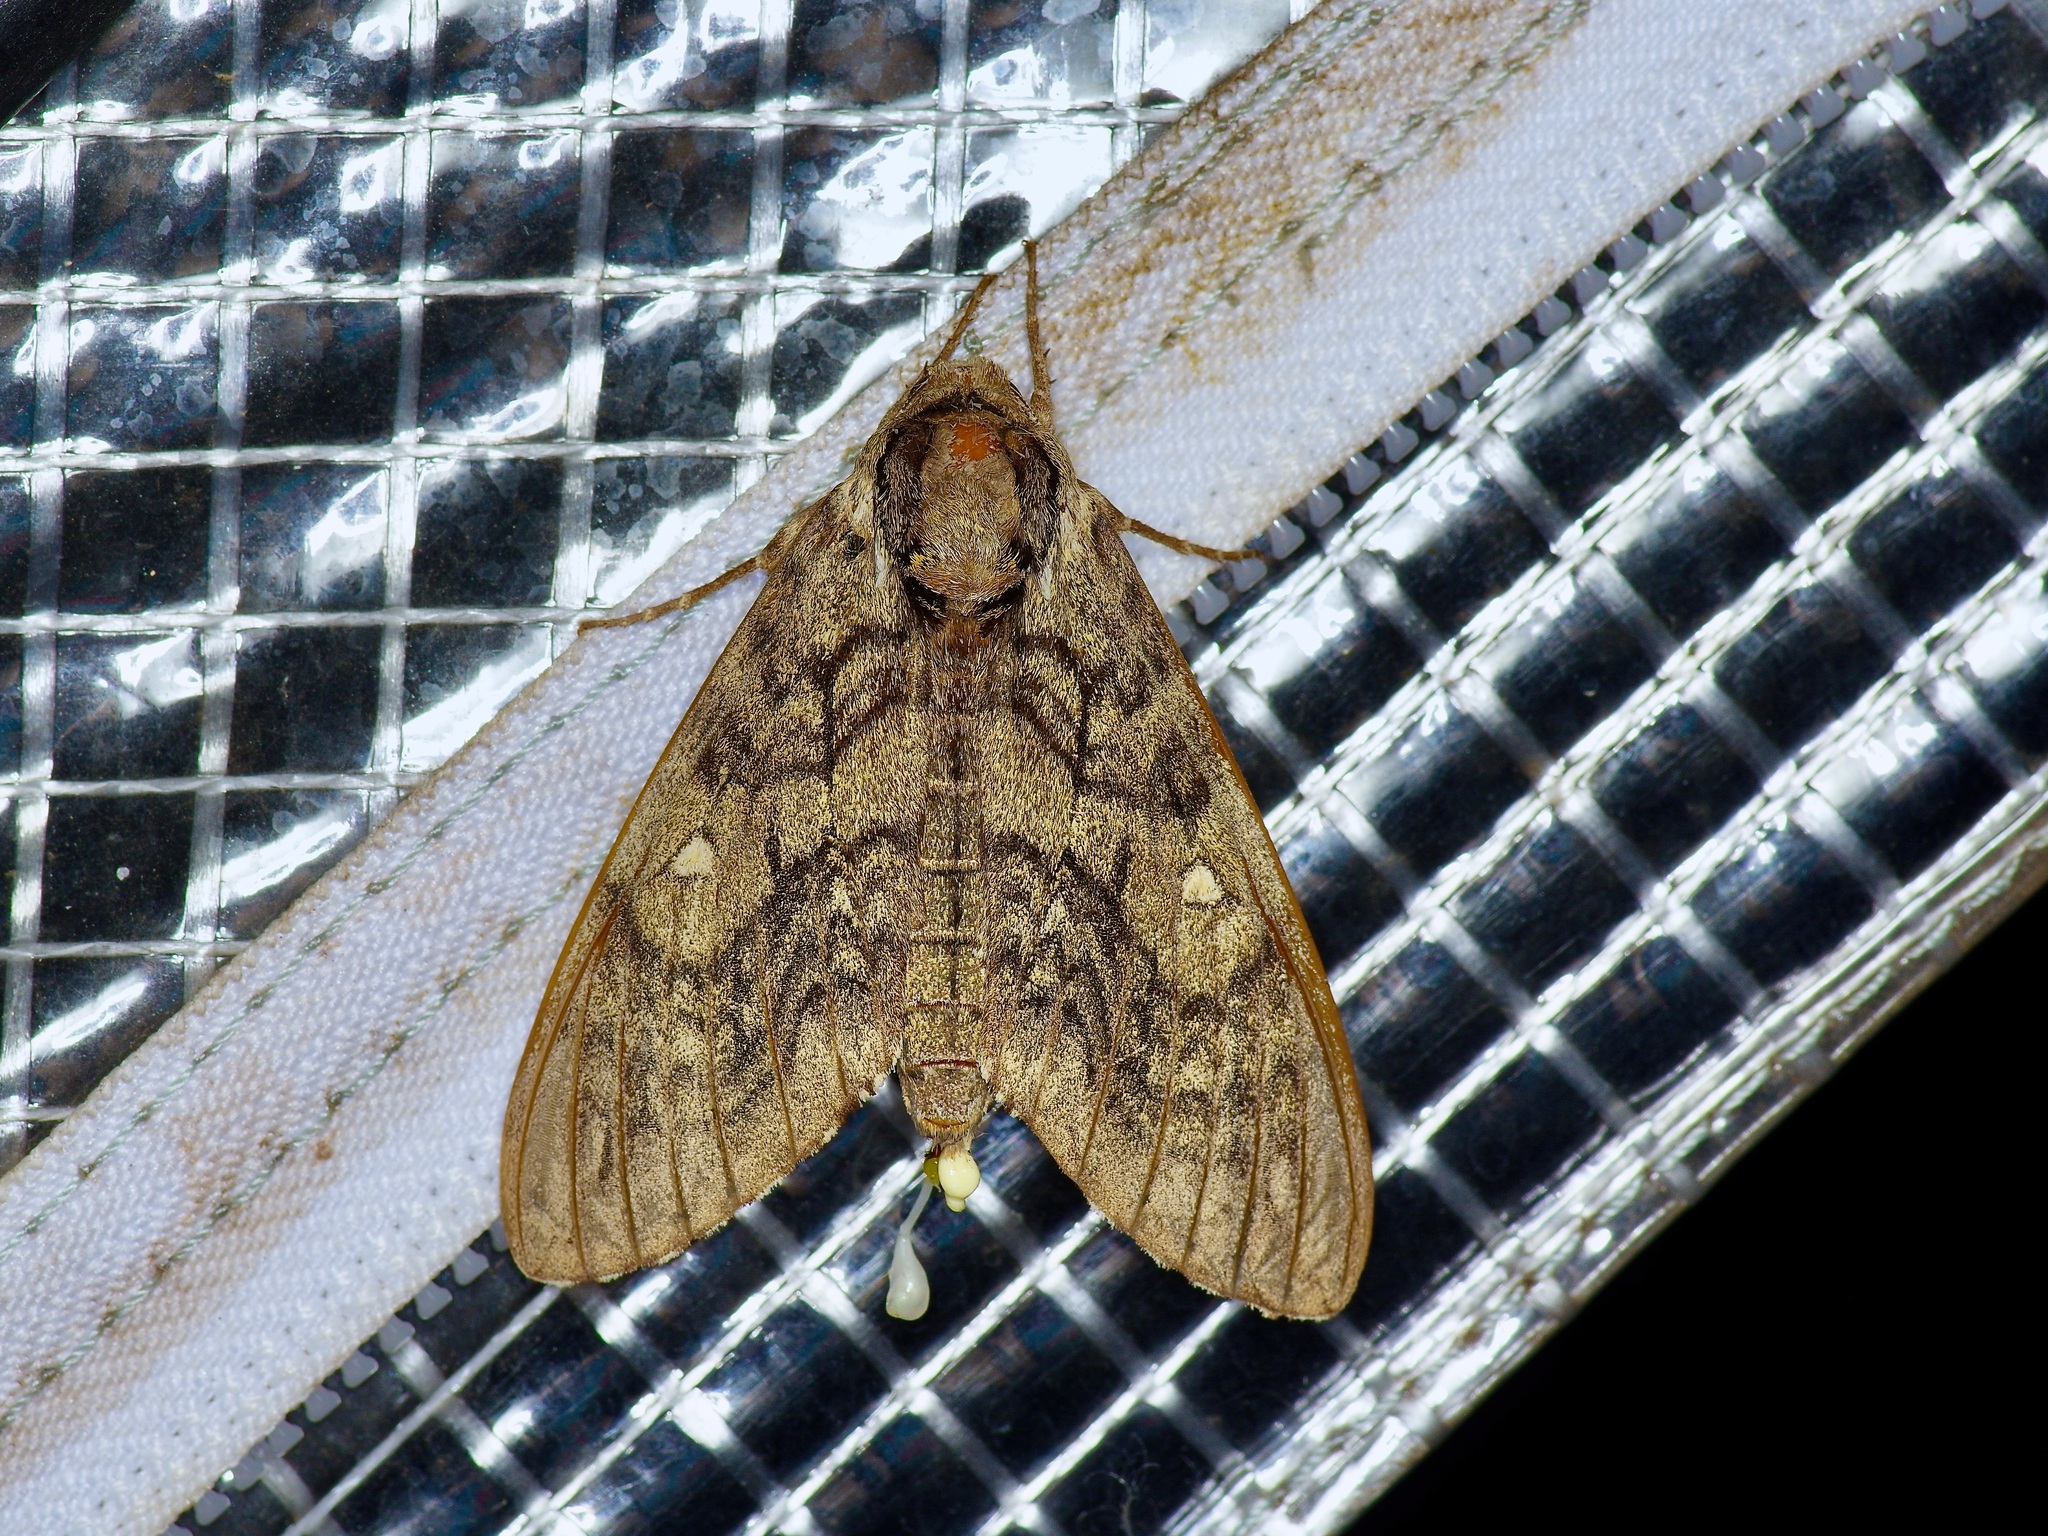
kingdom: Animalia
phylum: Arthropoda
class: Insecta
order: Lepidoptera
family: Sphingidae
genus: Ceratomia
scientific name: Ceratomia undulosa
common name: Waved sphinx
